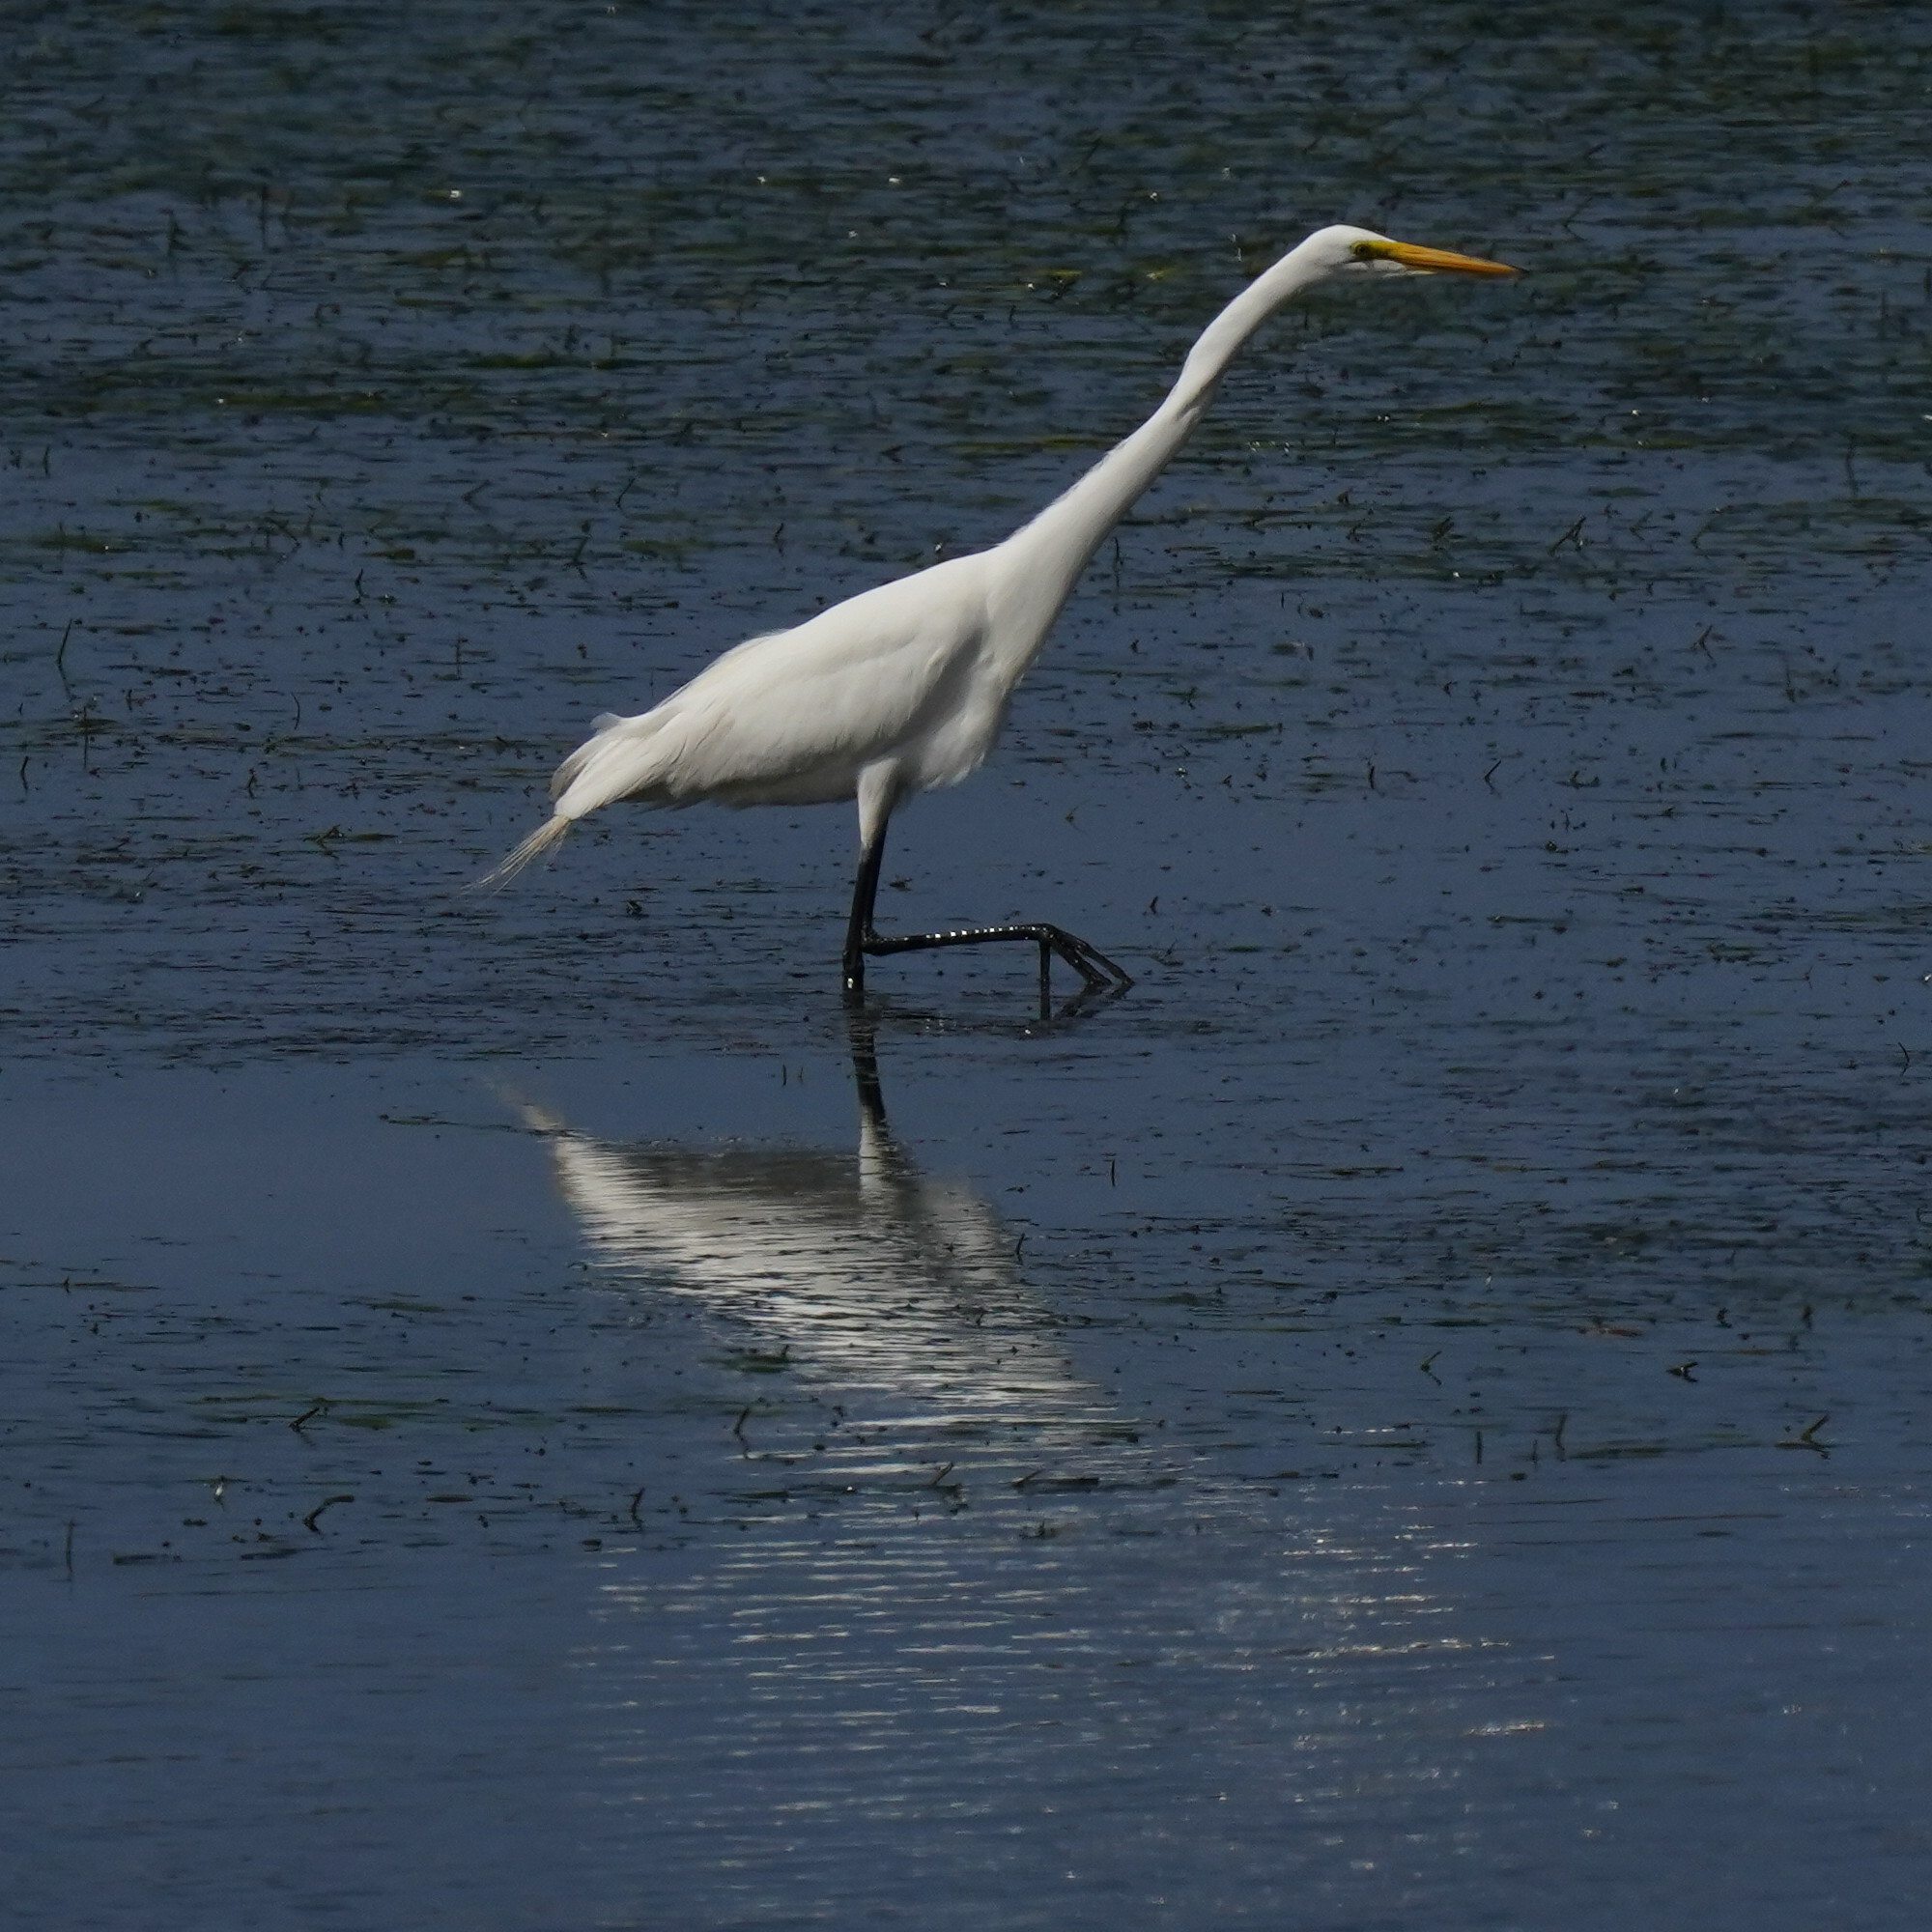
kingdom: Animalia
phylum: Chordata
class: Aves
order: Pelecaniformes
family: Ardeidae
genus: Ardea
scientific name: Ardea alba
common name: Great egret
